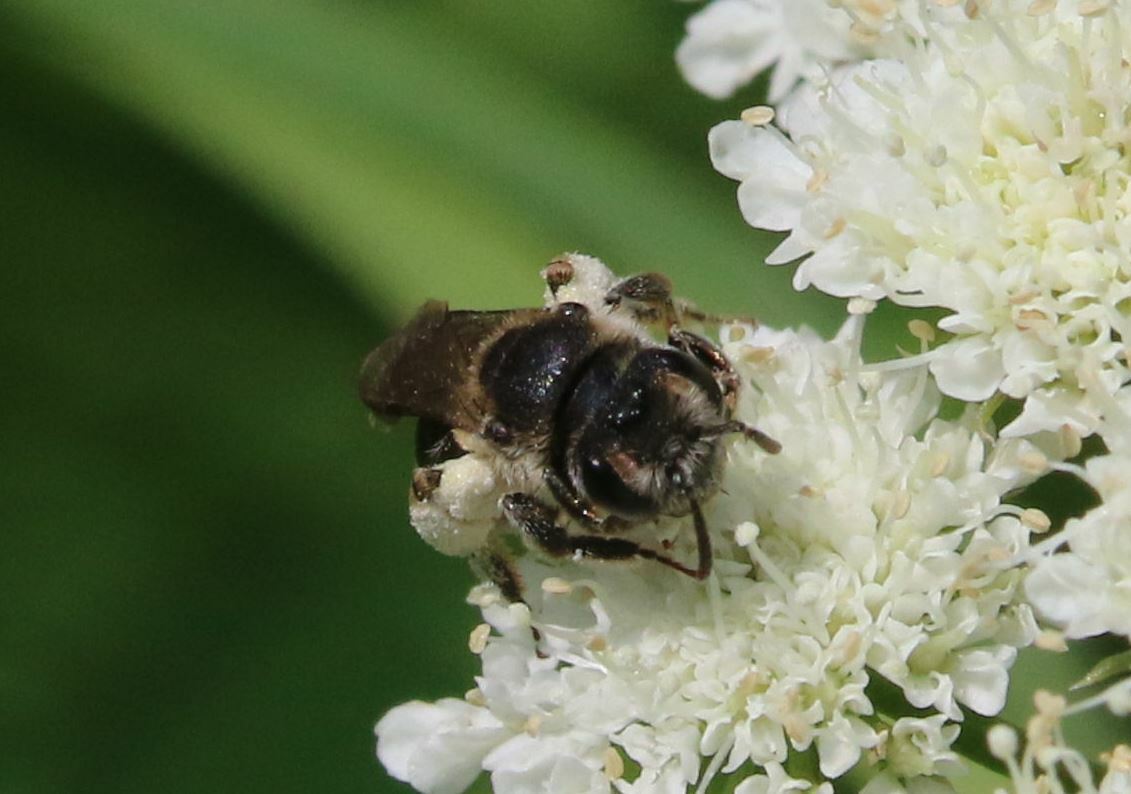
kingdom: Animalia
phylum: Arthropoda
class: Insecta
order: Hymenoptera
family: Andrenidae
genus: Andrena
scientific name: Andrena colletiformis
